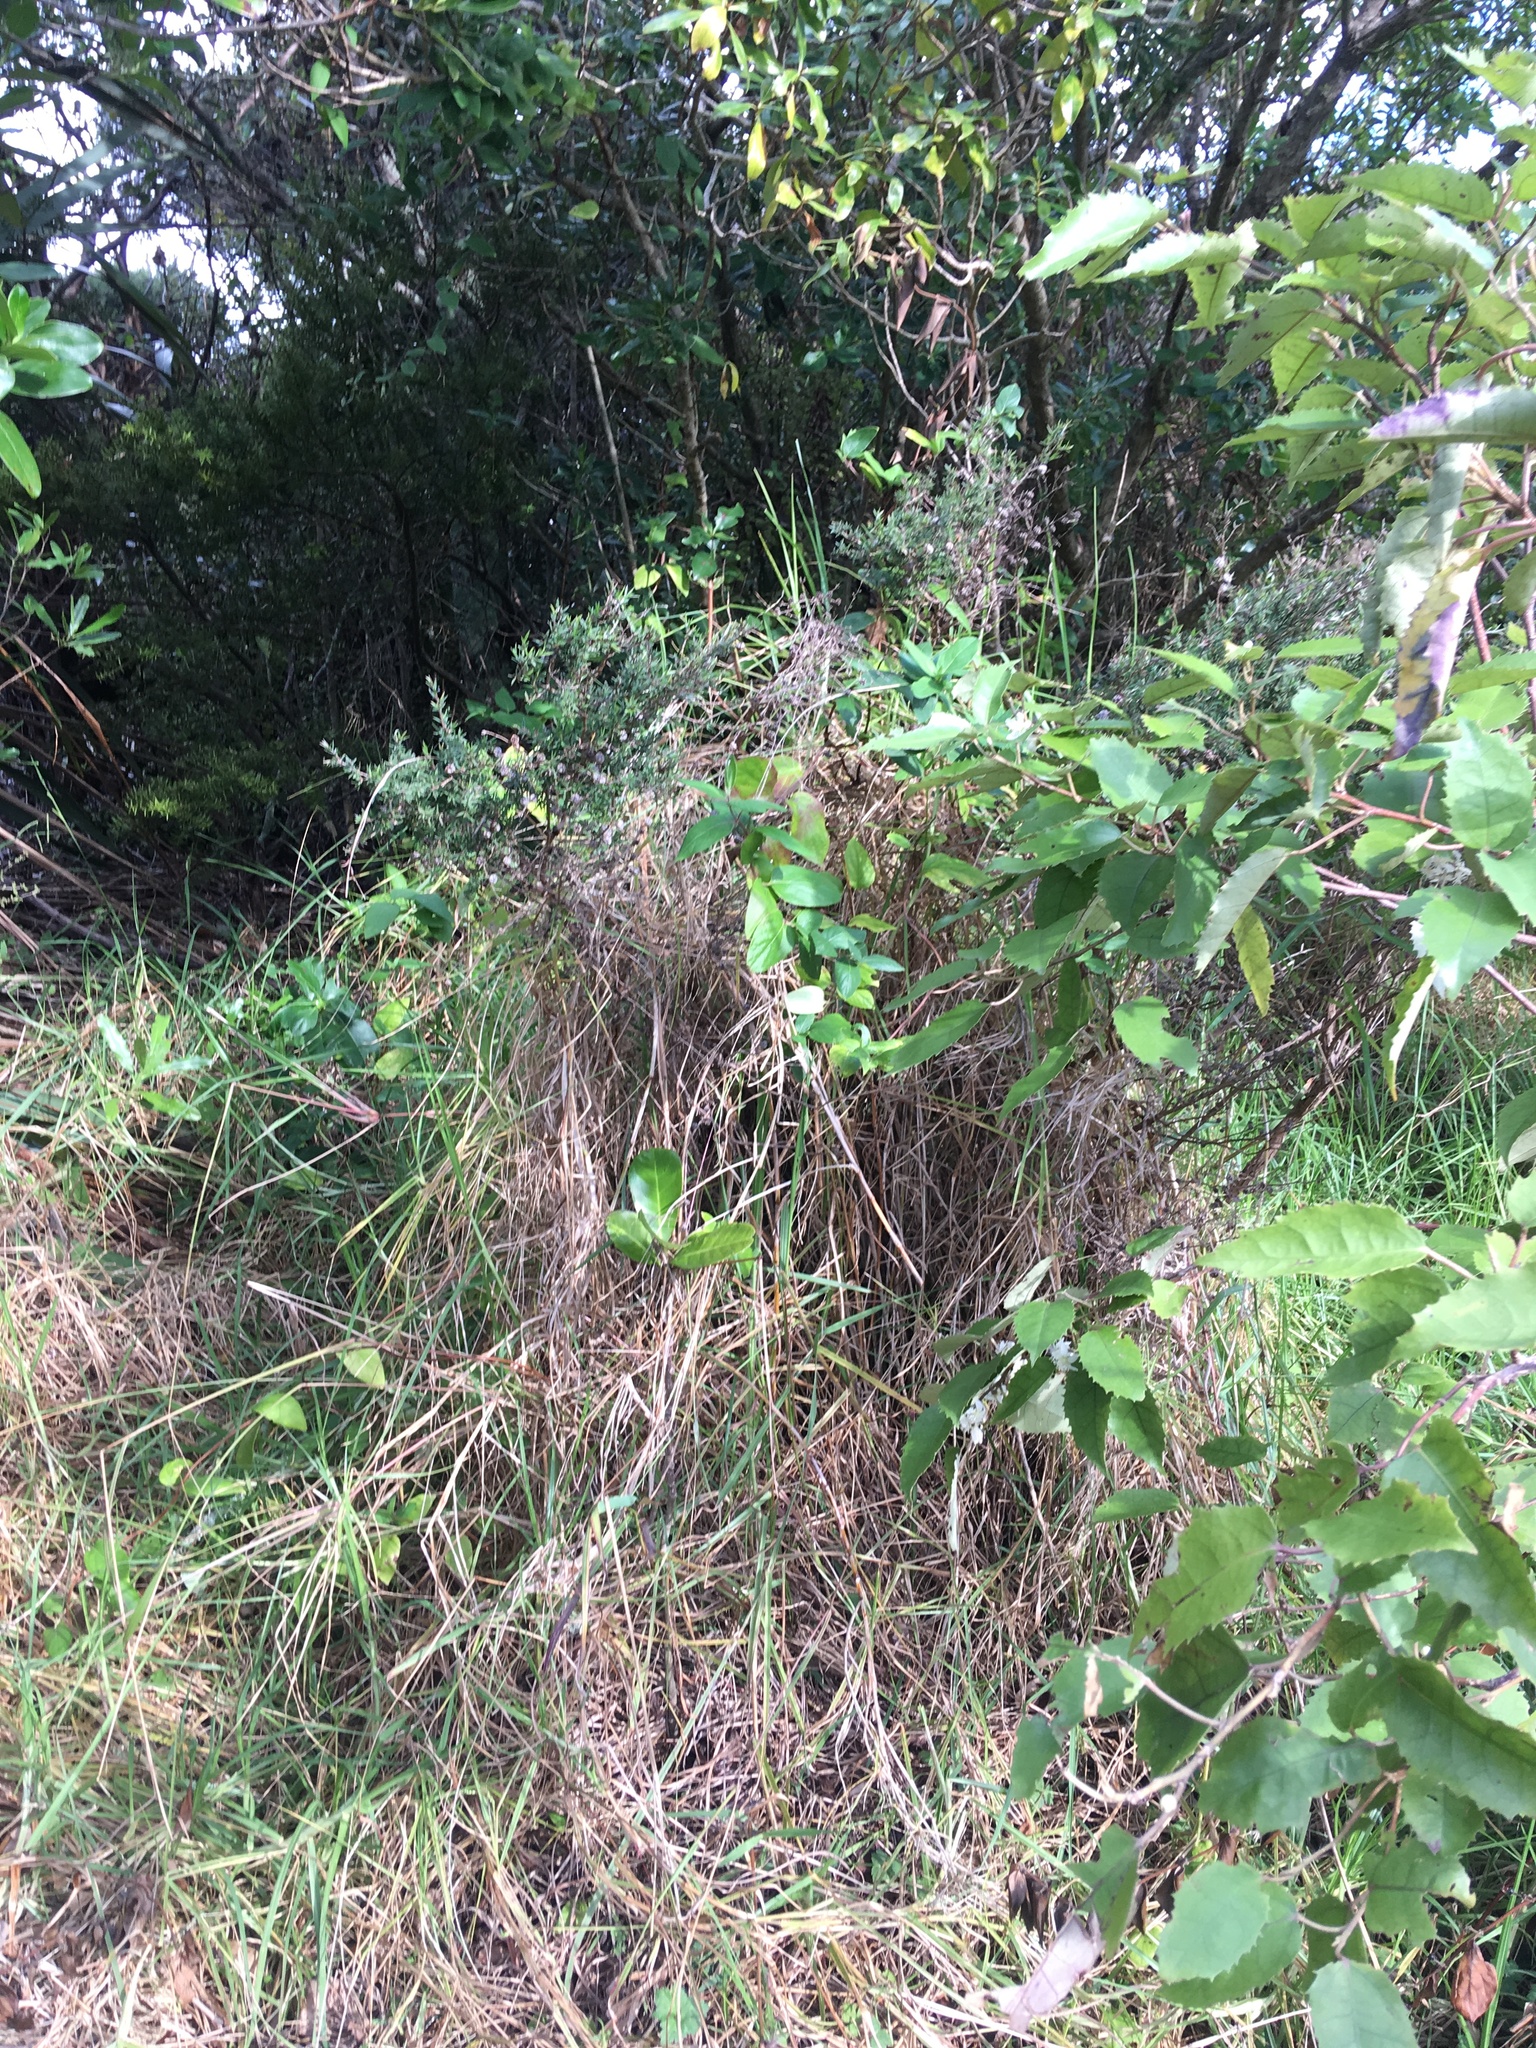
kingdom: Plantae
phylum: Tracheophyta
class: Liliopsida
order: Poales
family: Poaceae
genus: Cenchrus
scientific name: Cenchrus clandestinus
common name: Kikuyugrass
